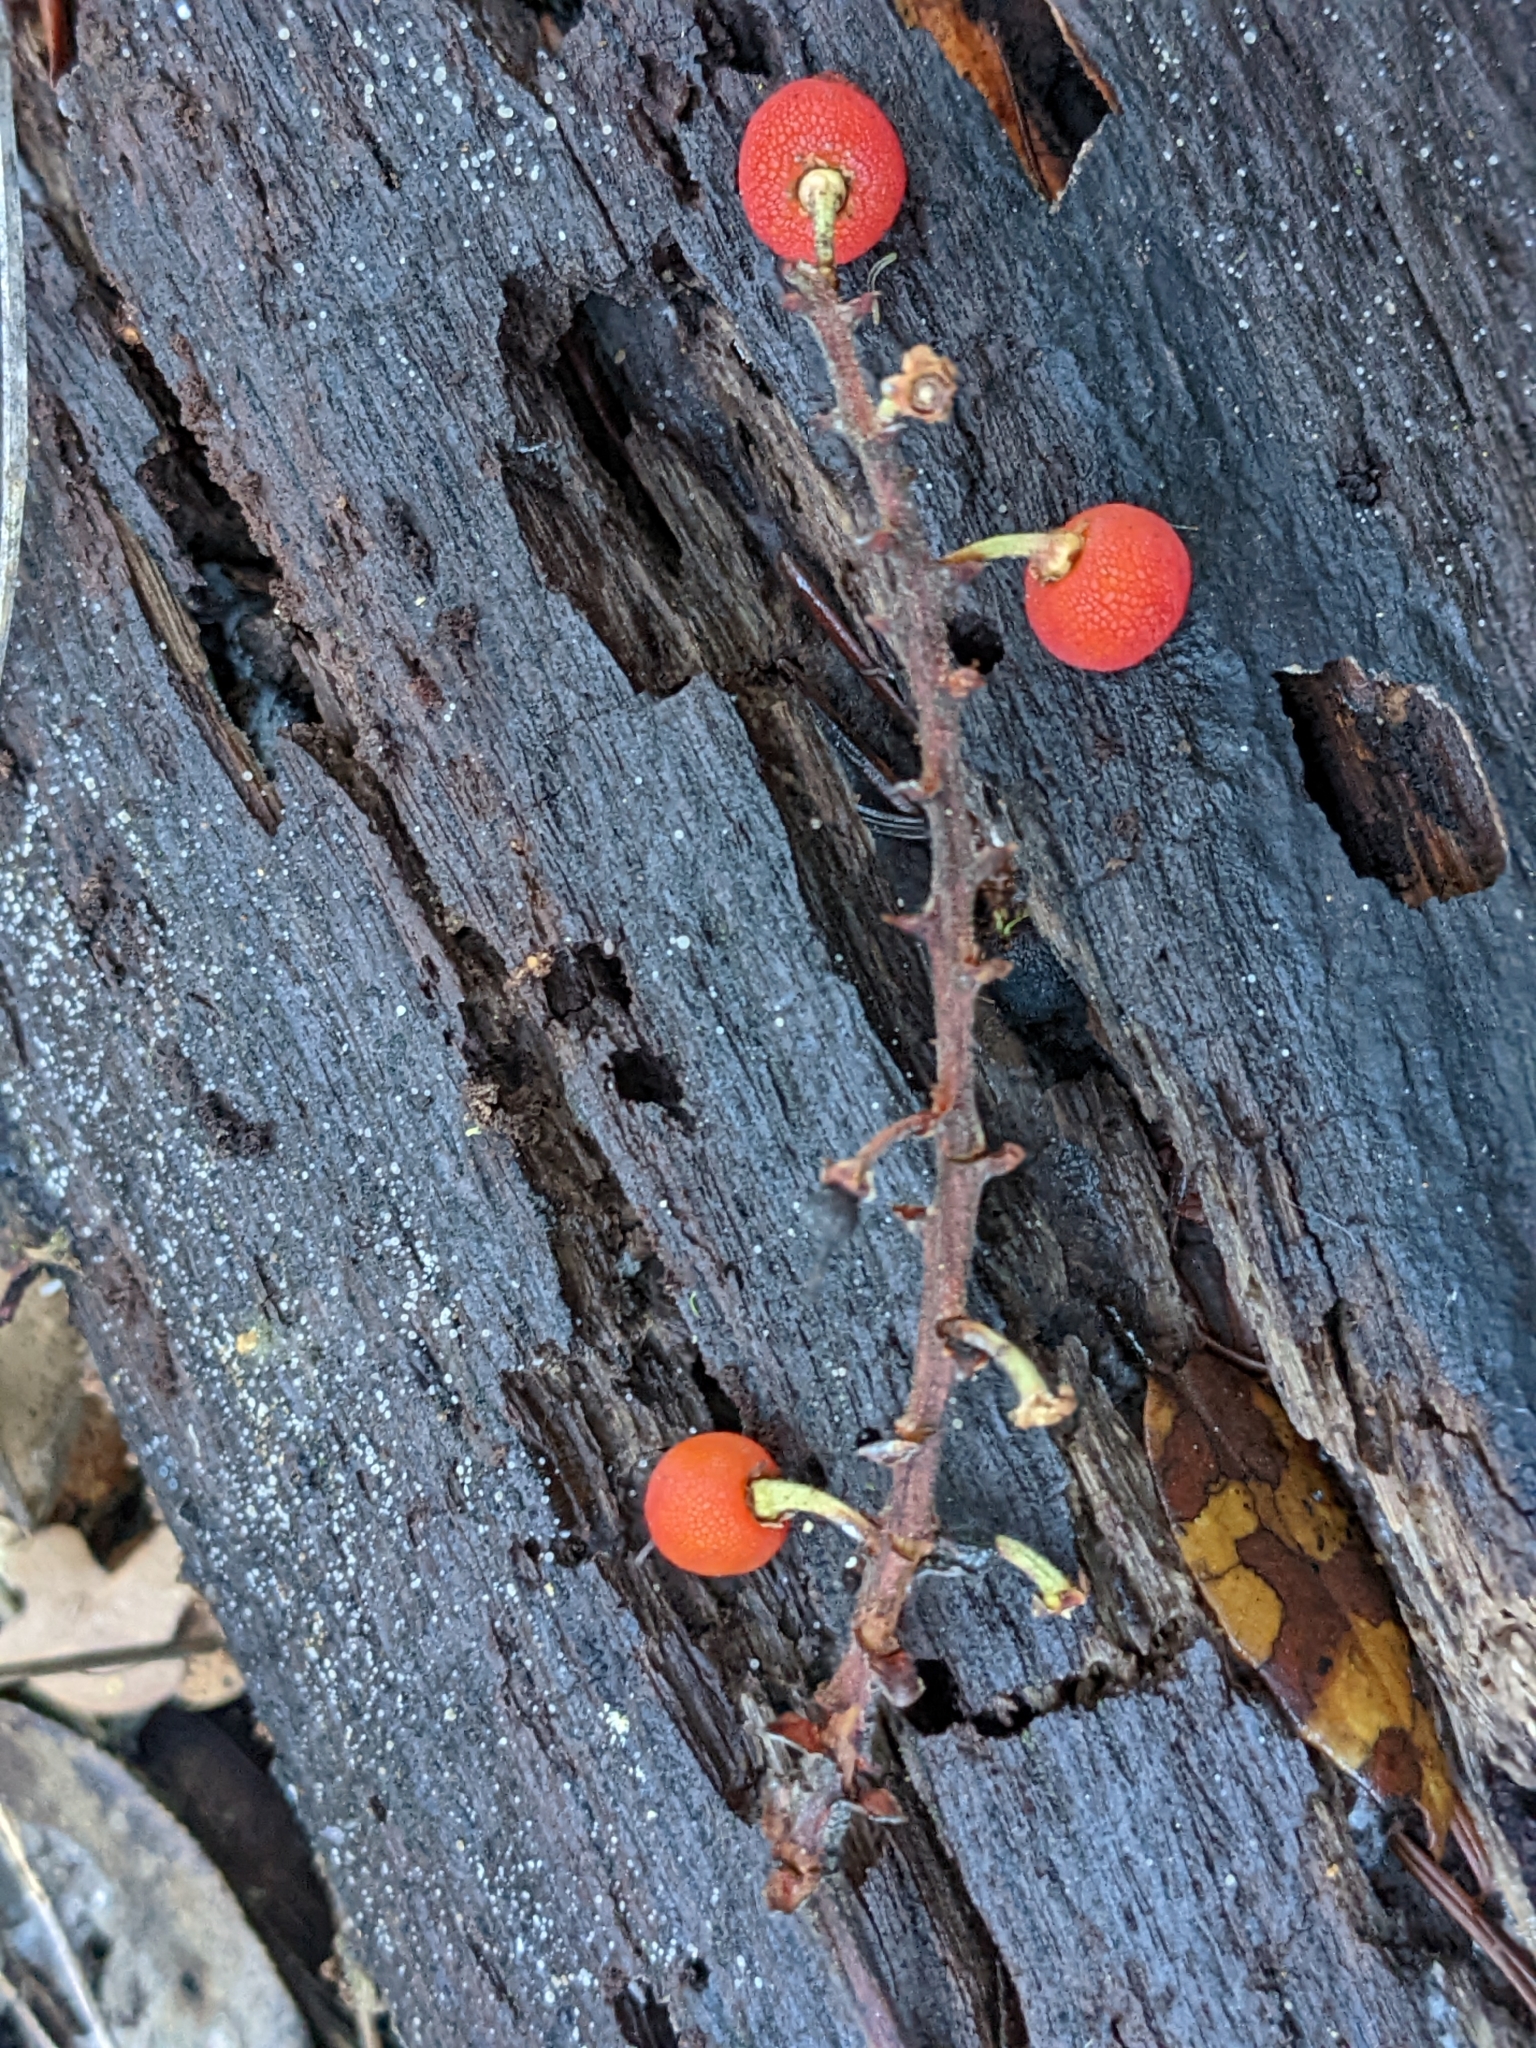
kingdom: Plantae
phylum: Tracheophyta
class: Magnoliopsida
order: Ericales
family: Ericaceae
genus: Arbutus
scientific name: Arbutus menziesii
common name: Pacific madrone
